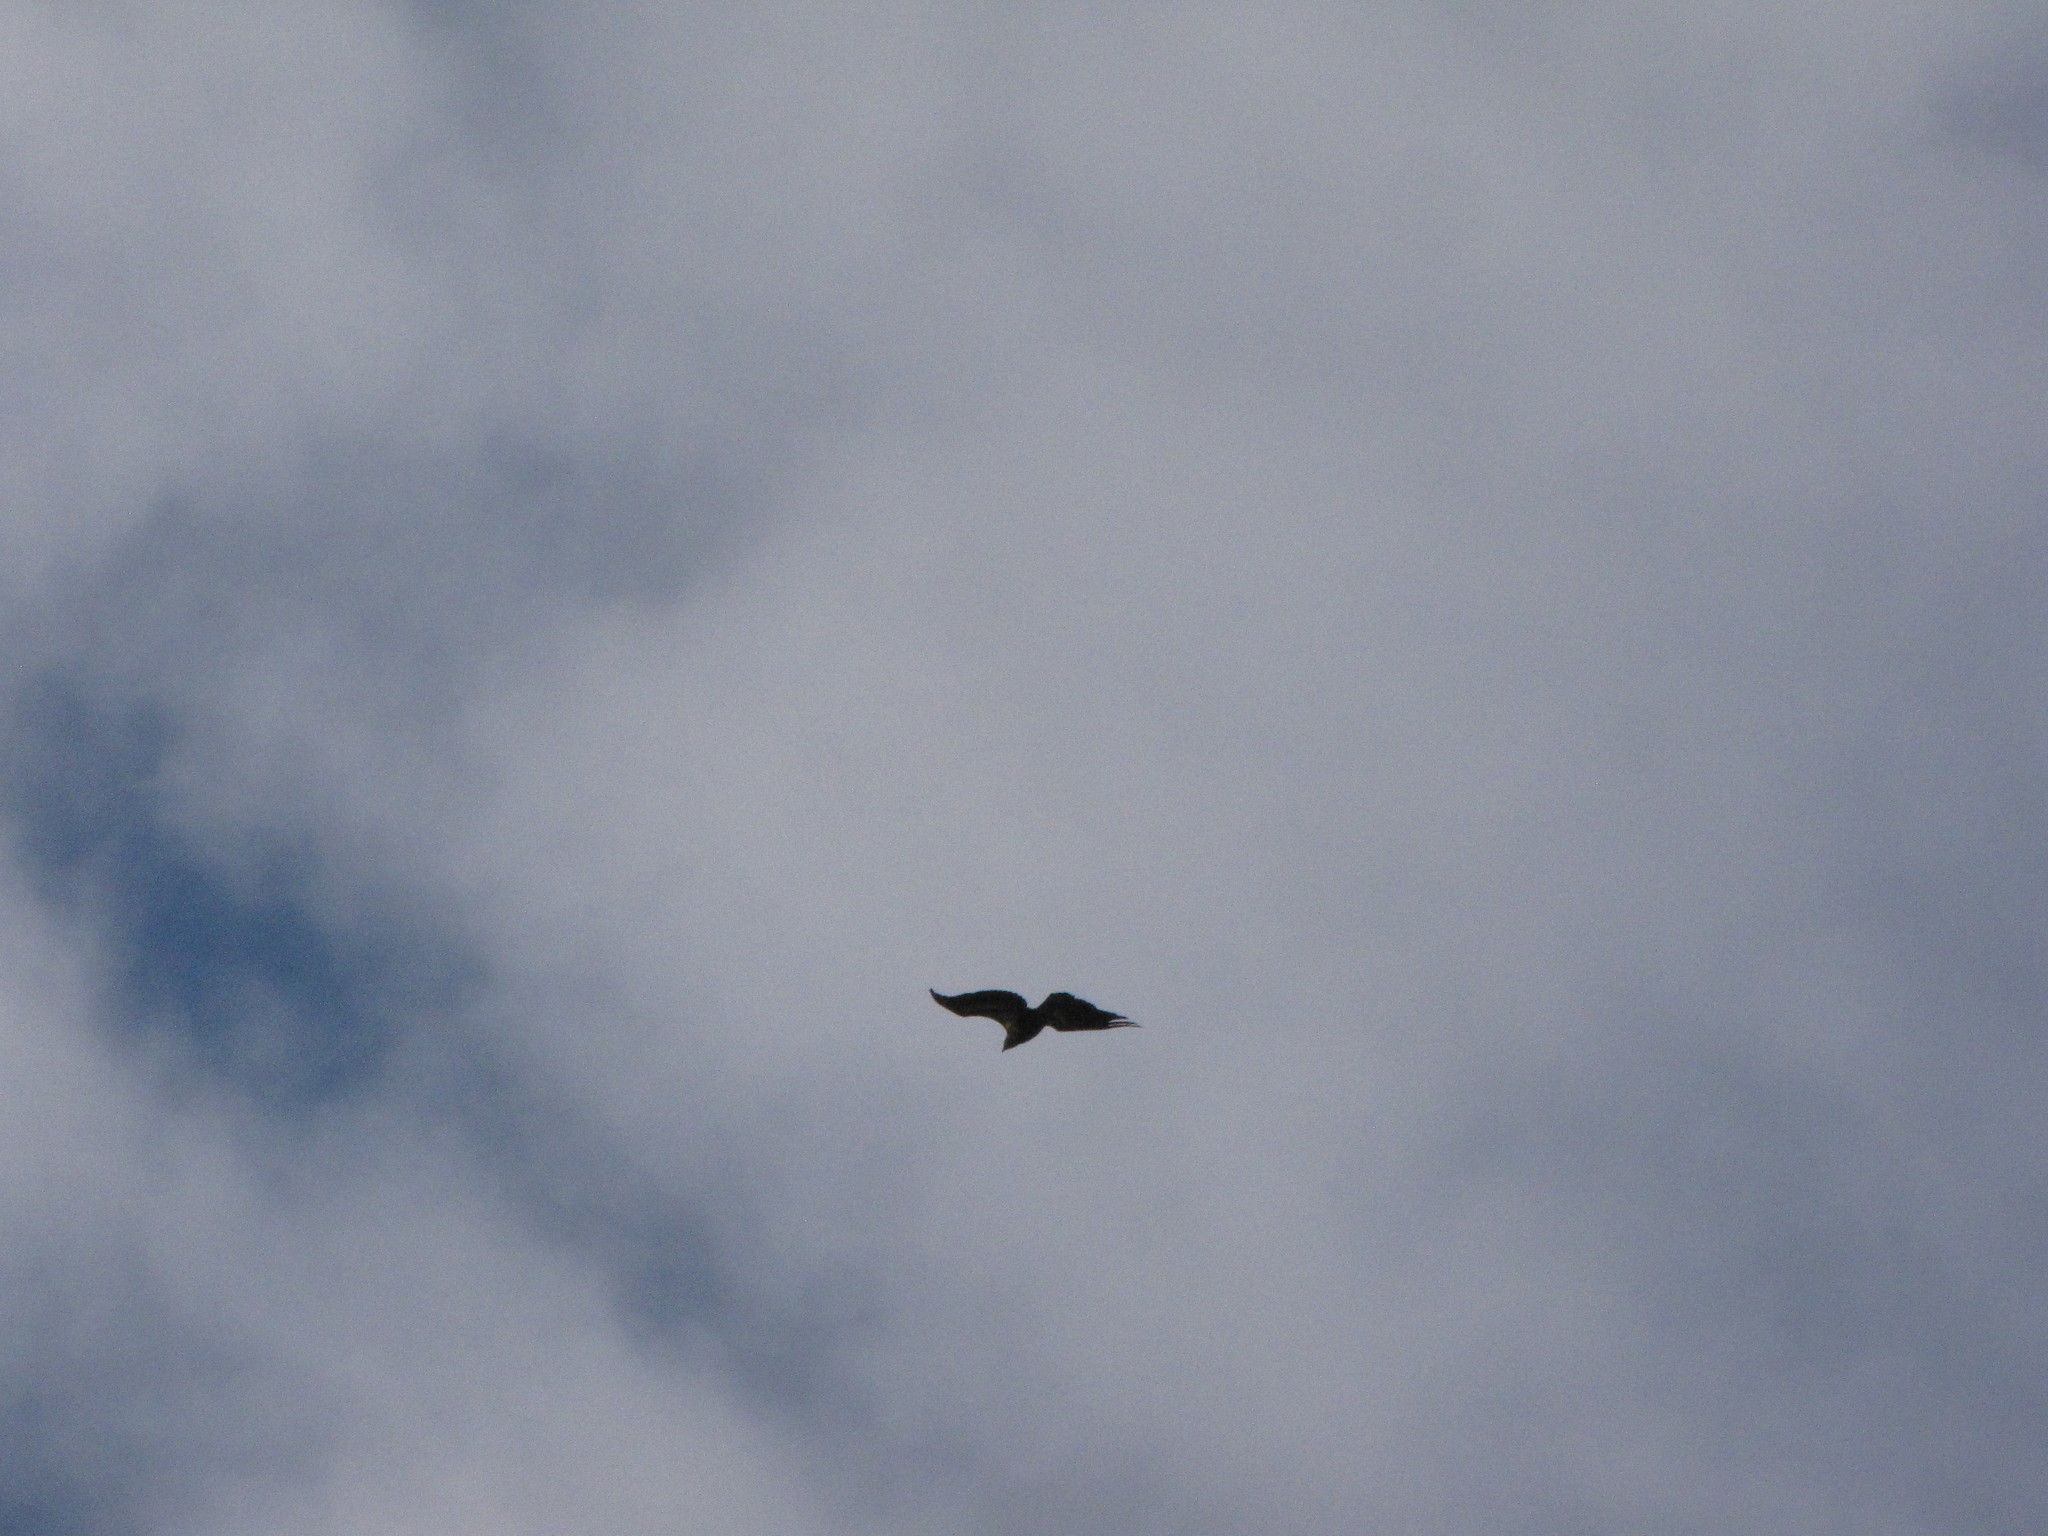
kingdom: Animalia
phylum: Chordata
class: Aves
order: Accipitriformes
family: Accipitridae
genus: Haliaeetus
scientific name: Haliaeetus leucocephalus
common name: Bald eagle
